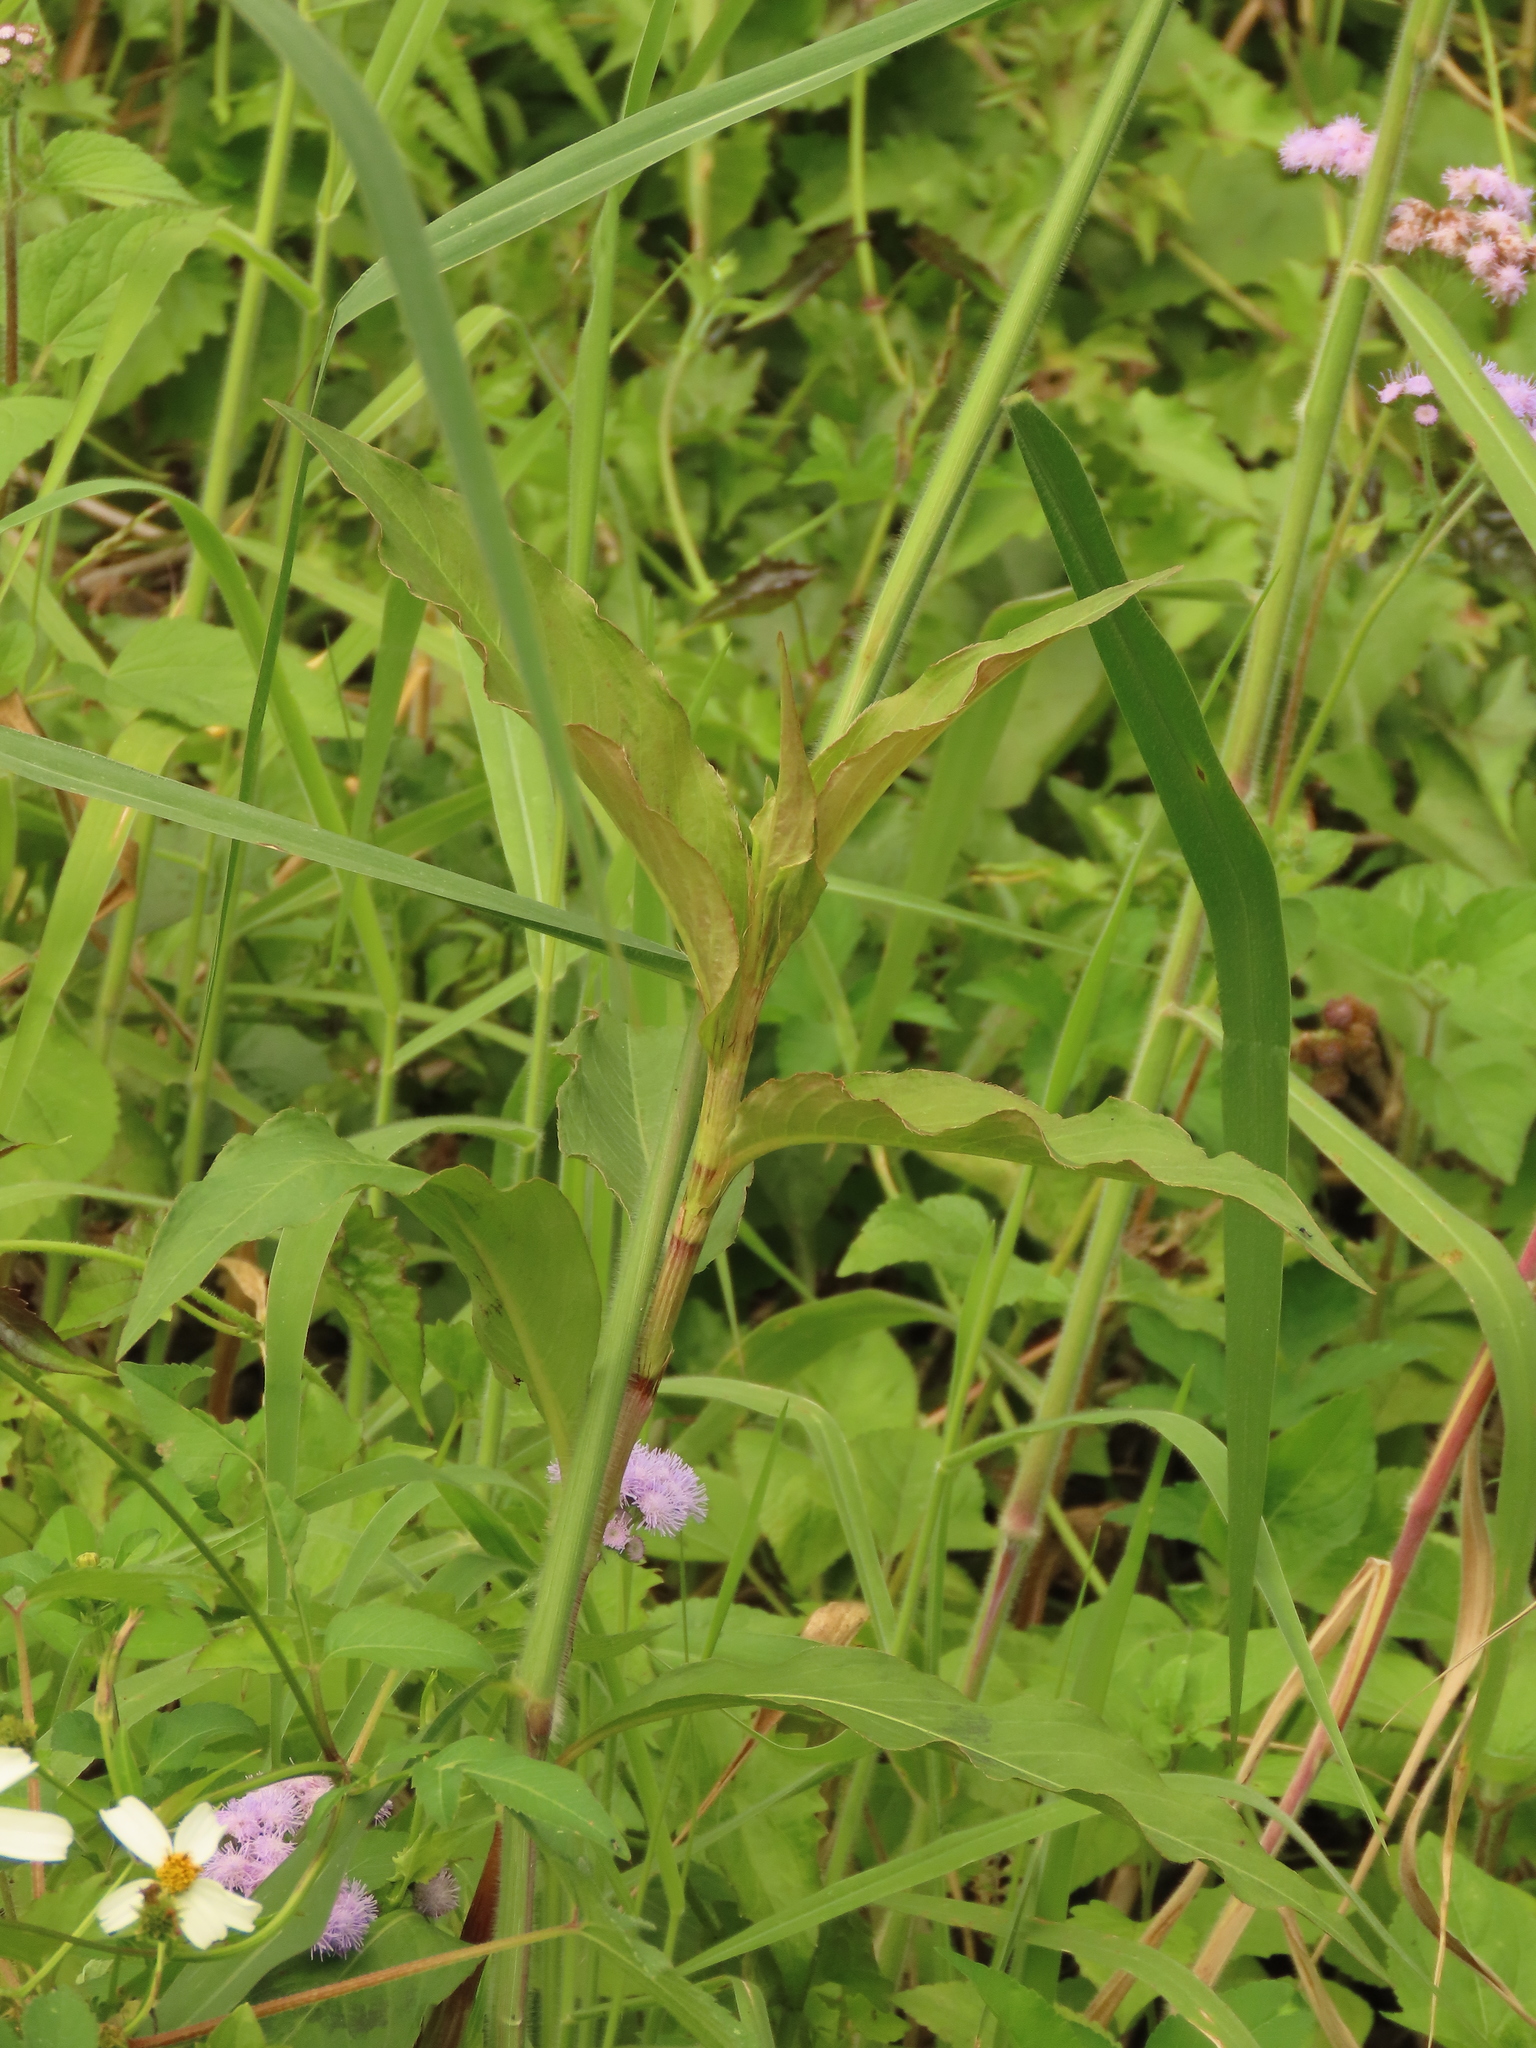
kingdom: Plantae
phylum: Tracheophyta
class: Magnoliopsida
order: Caryophyllales
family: Polygonaceae
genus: Persicaria
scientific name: Persicaria barbata
